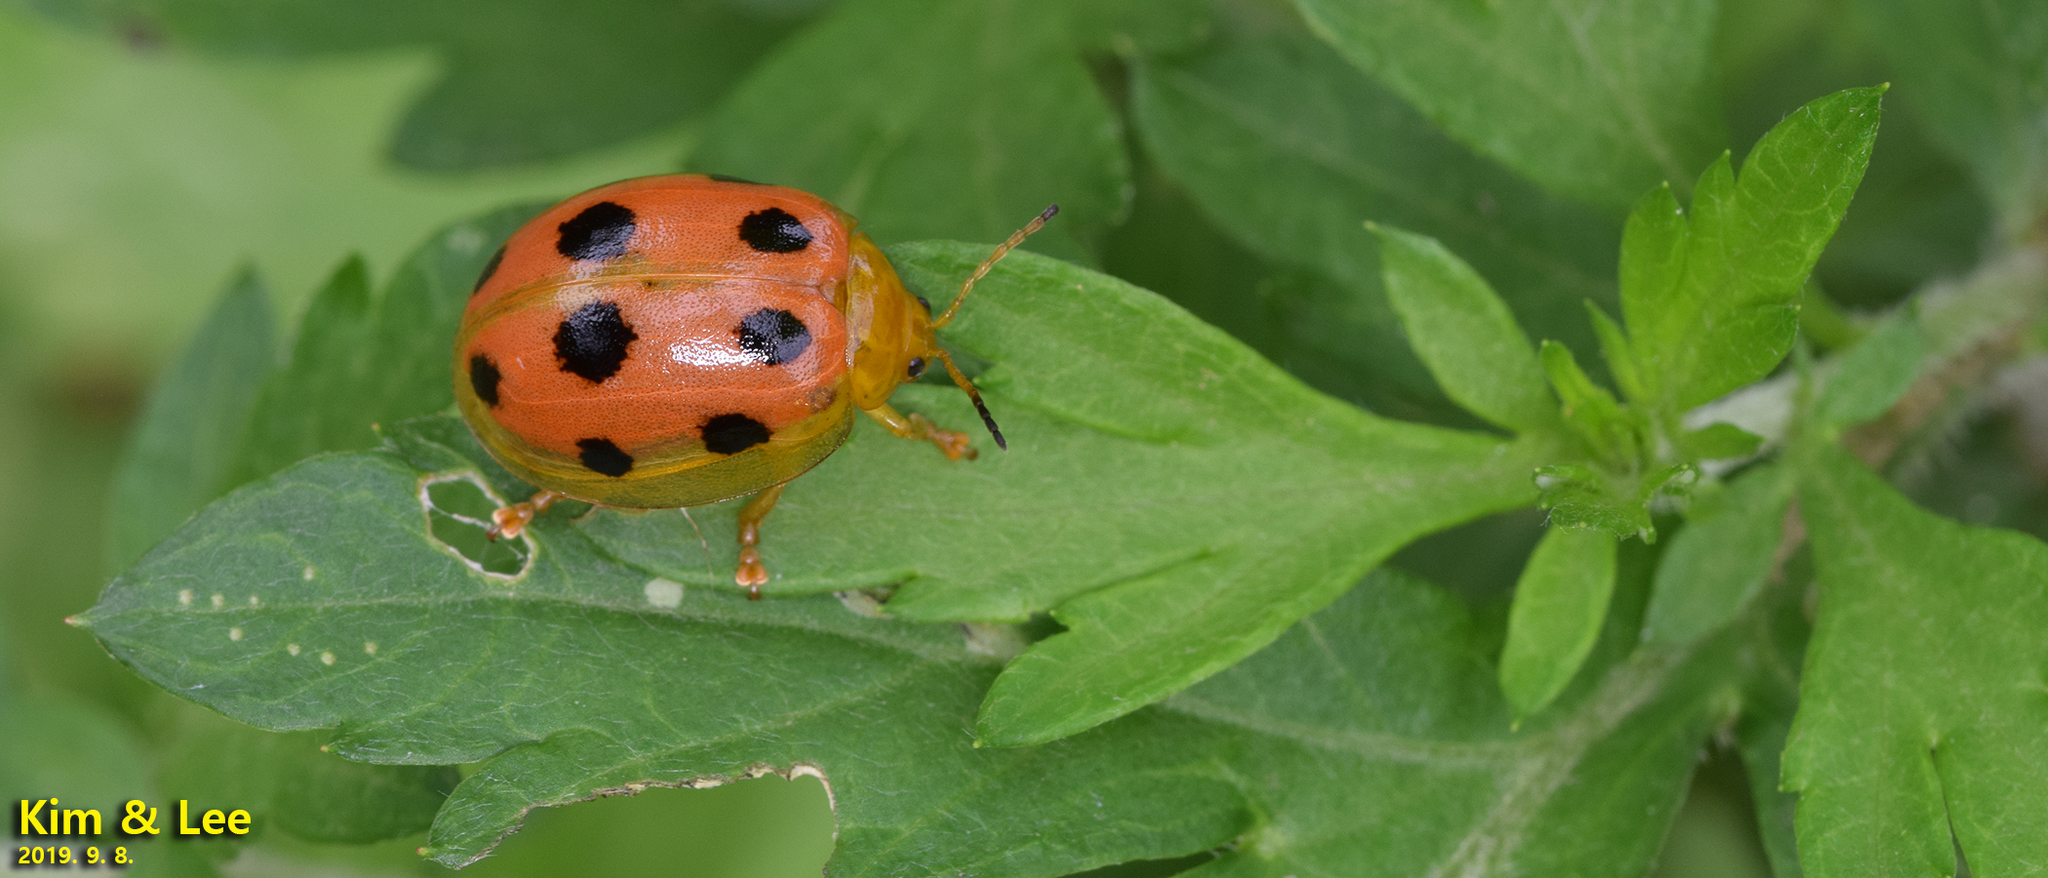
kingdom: Animalia
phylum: Arthropoda
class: Insecta
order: Coleoptera
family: Chrysomelidae
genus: Oides
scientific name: Oides decempunctata
